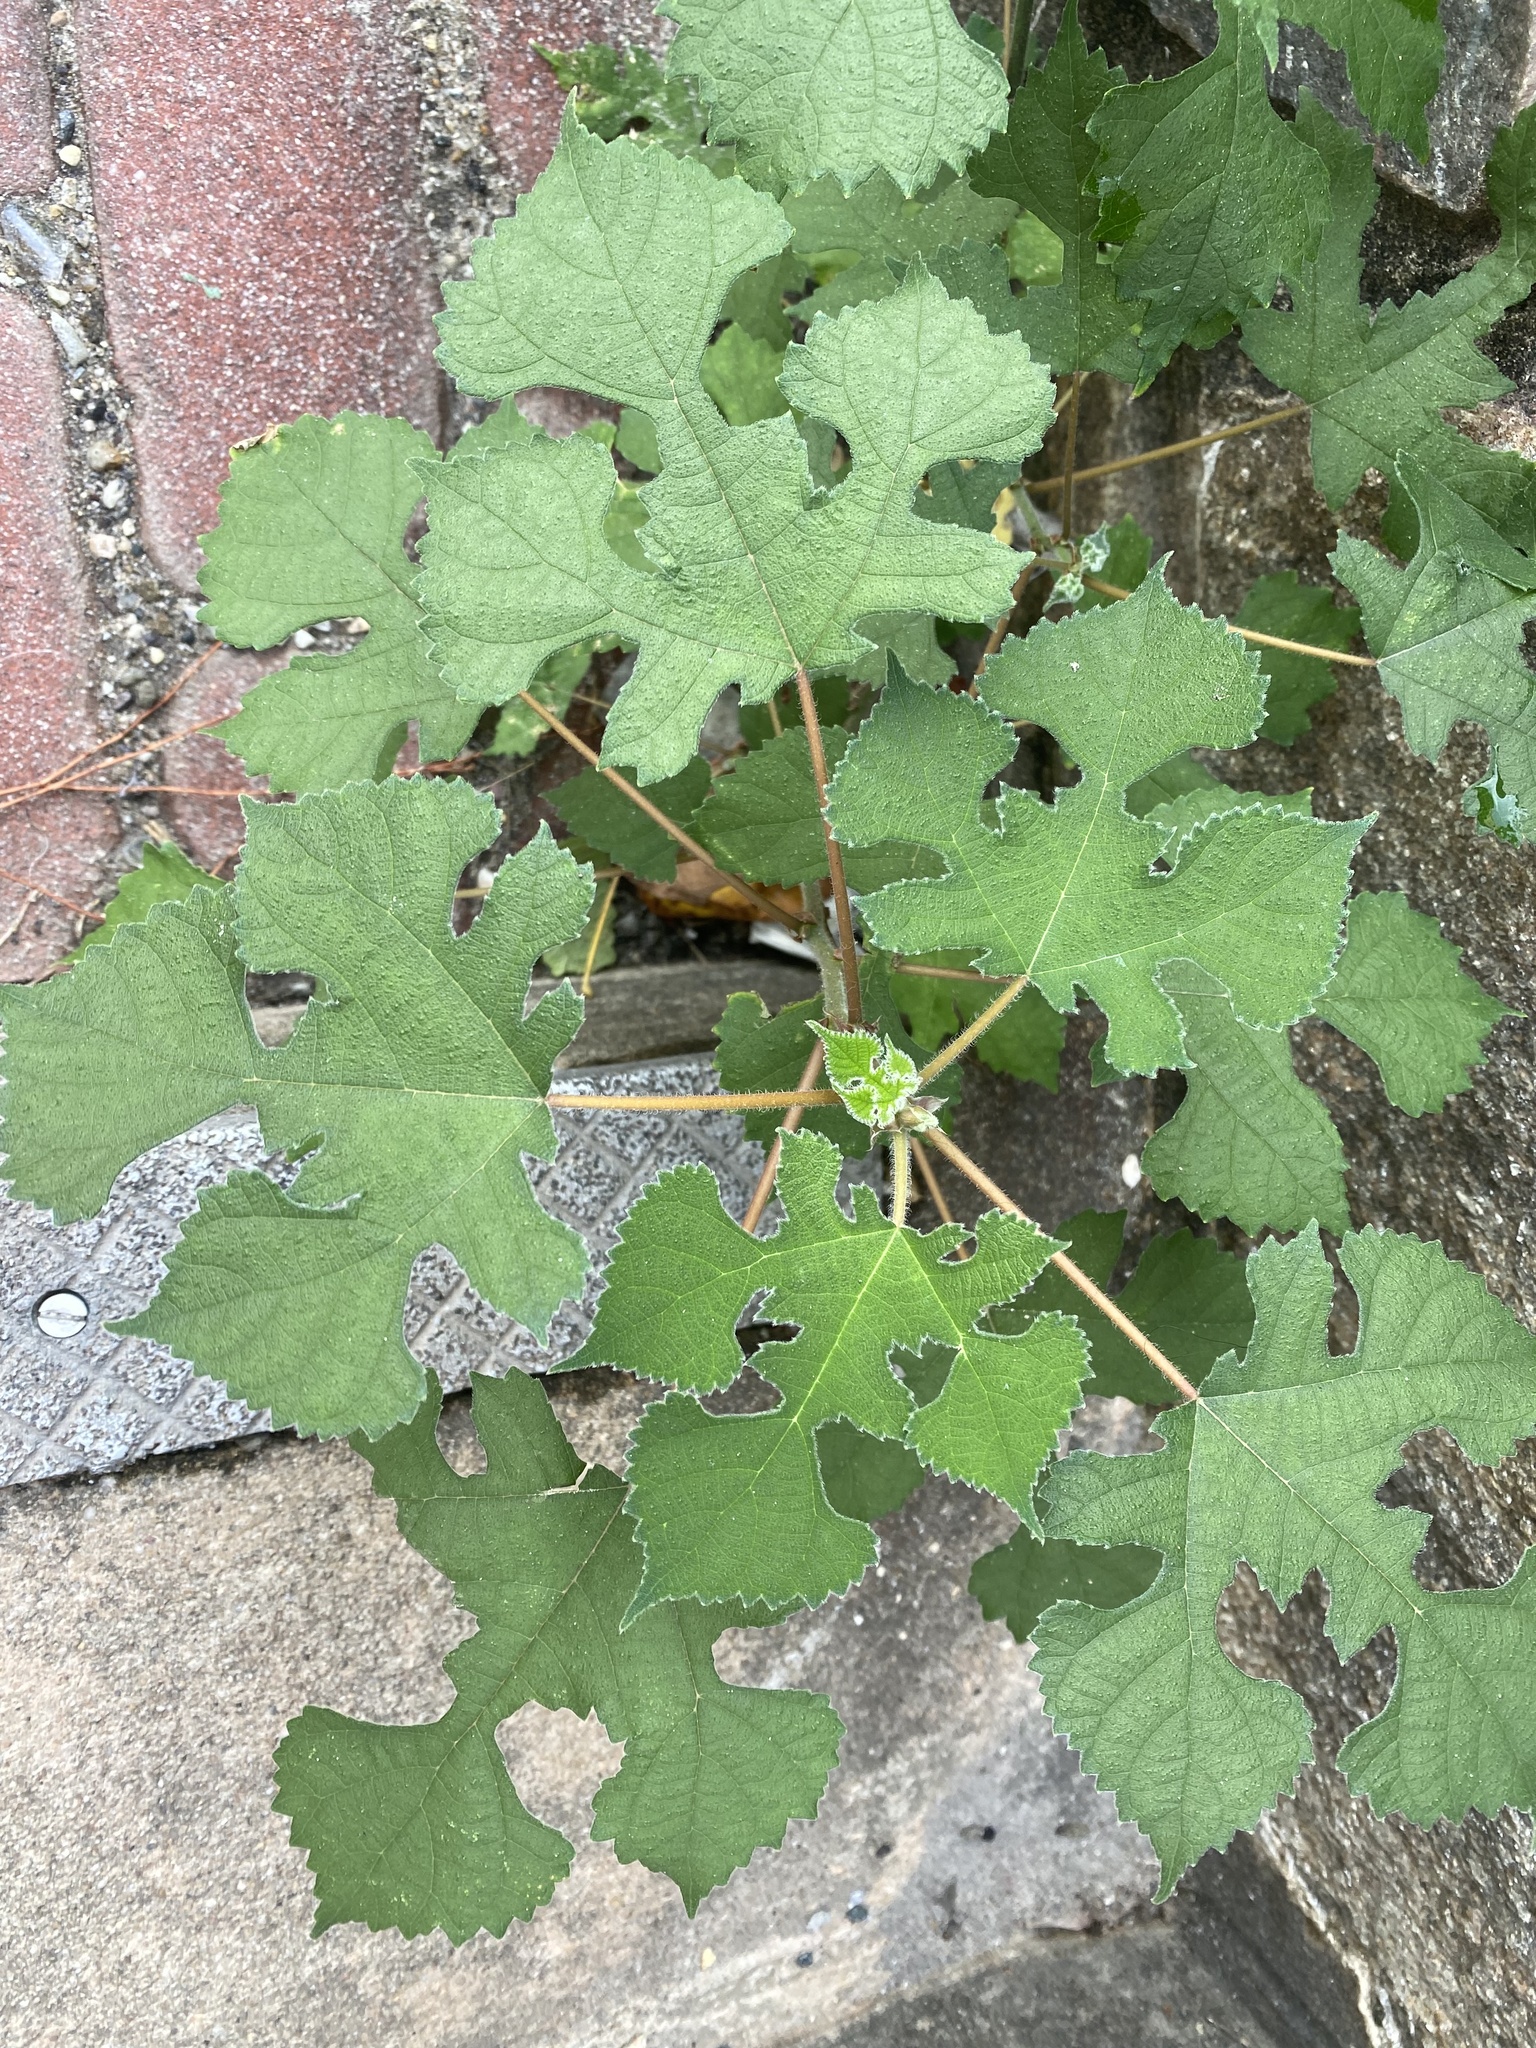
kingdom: Plantae
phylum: Tracheophyta
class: Magnoliopsida
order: Rosales
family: Moraceae
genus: Broussonetia
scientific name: Broussonetia papyrifera
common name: Paper mulberry
